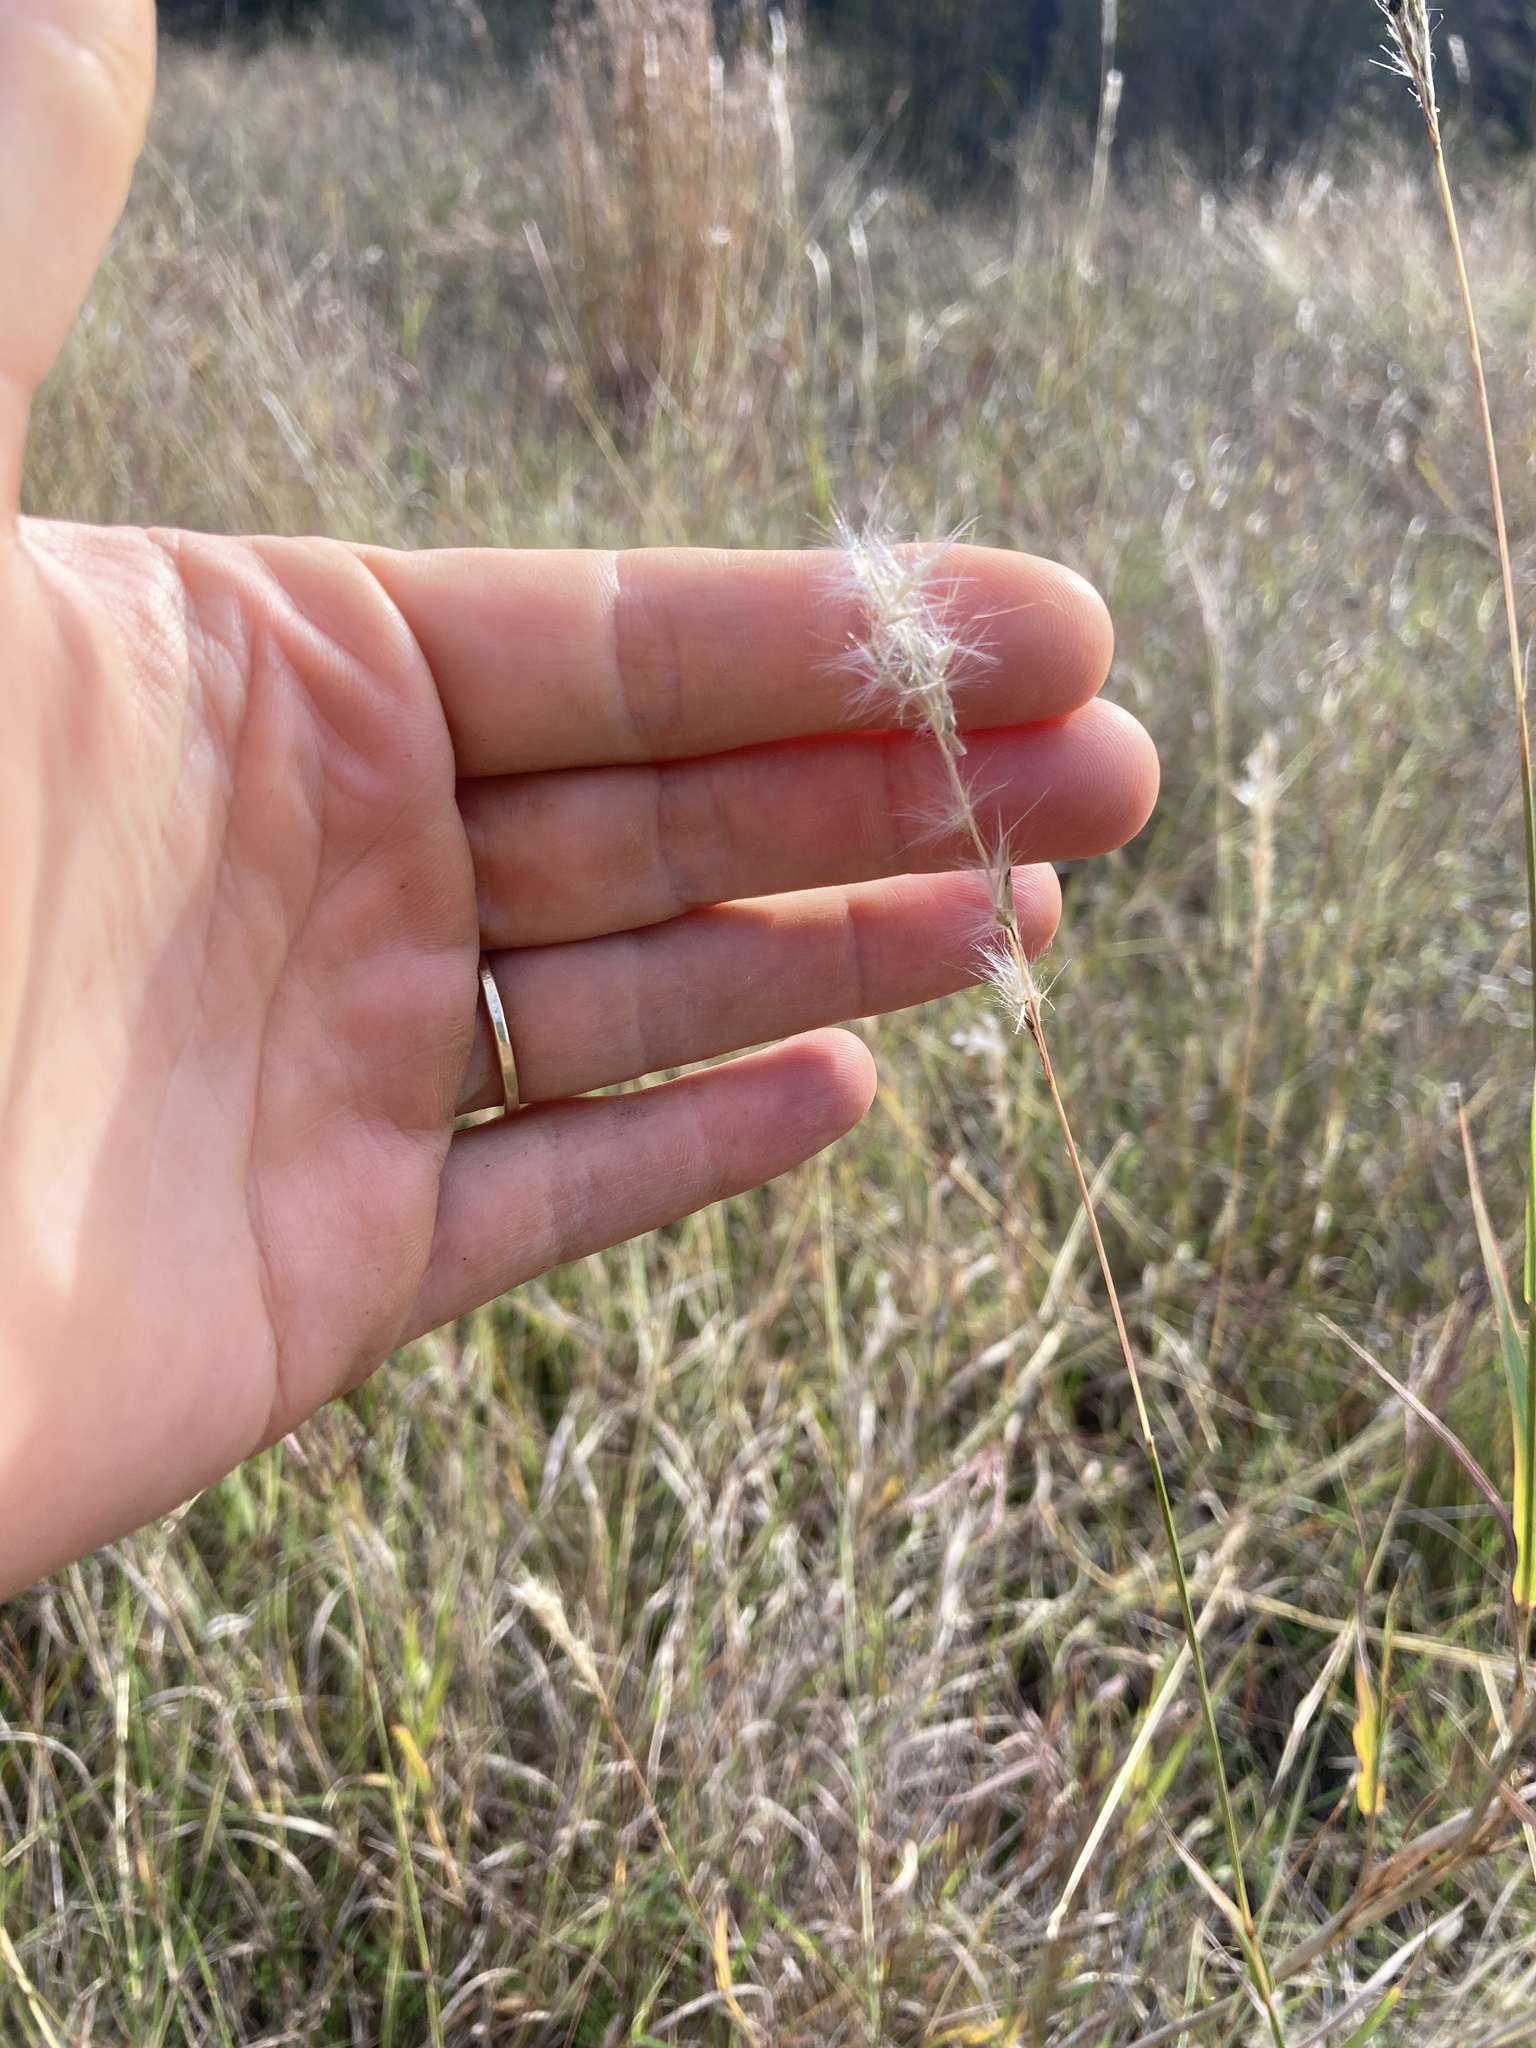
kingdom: Plantae
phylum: Tracheophyta
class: Liliopsida
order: Poales
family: Poaceae
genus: Bothriochloa
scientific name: Bothriochloa torreyana
